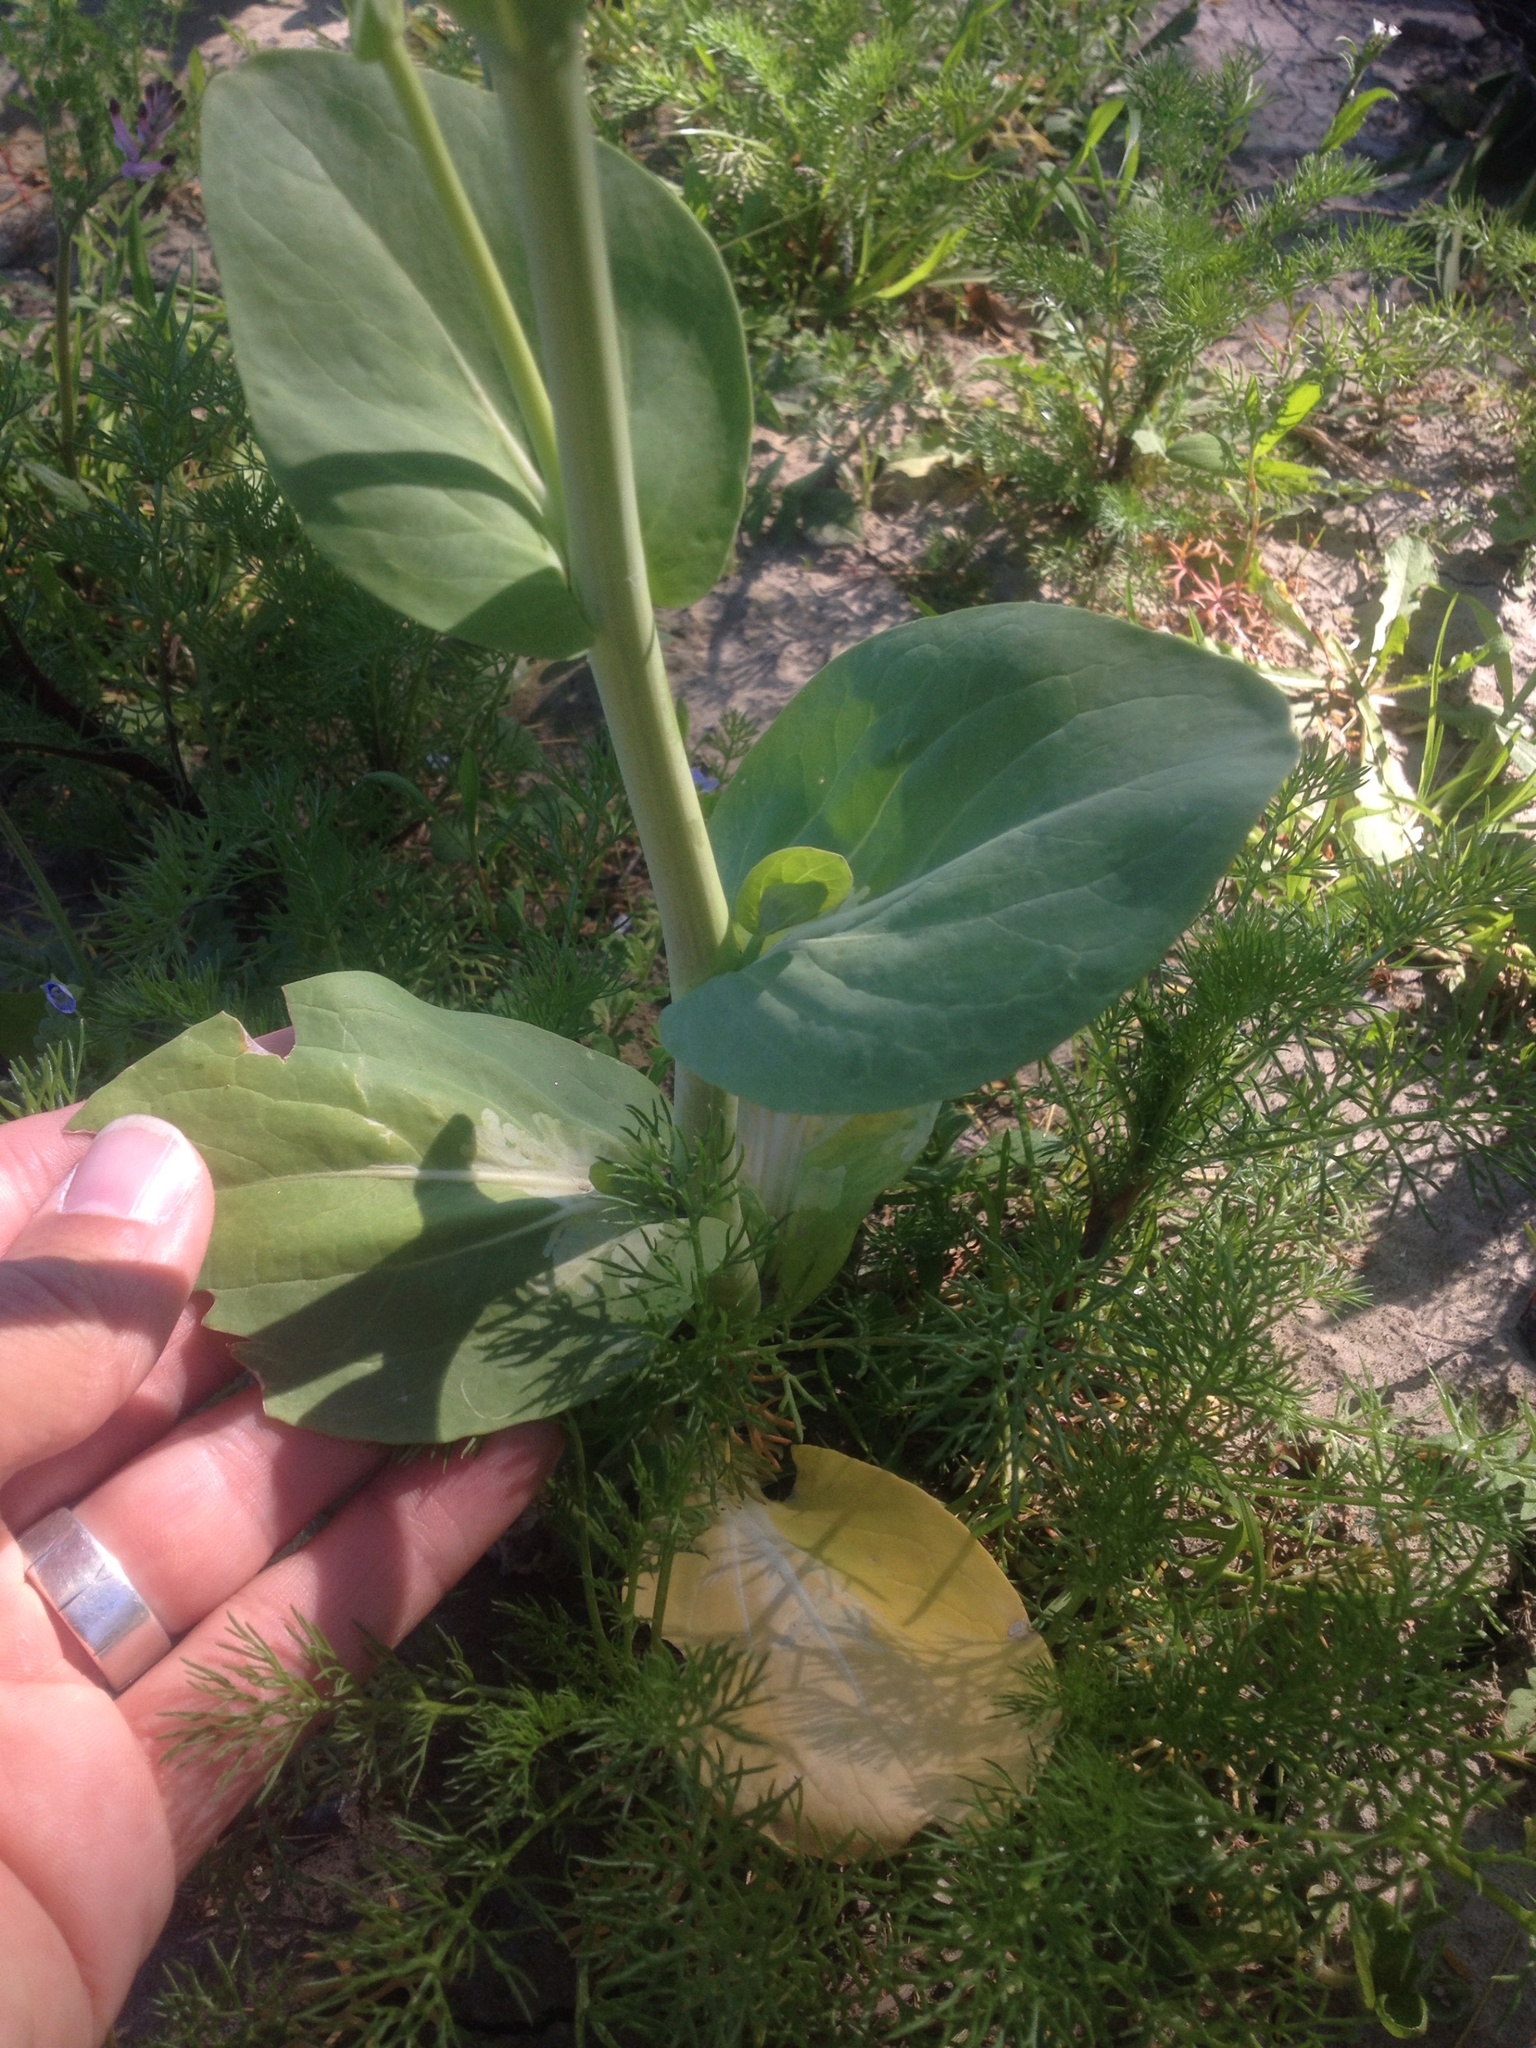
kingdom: Plantae
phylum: Tracheophyta
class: Magnoliopsida
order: Brassicales
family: Brassicaceae
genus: Brassica
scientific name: Brassica rapa
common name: Field mustard
